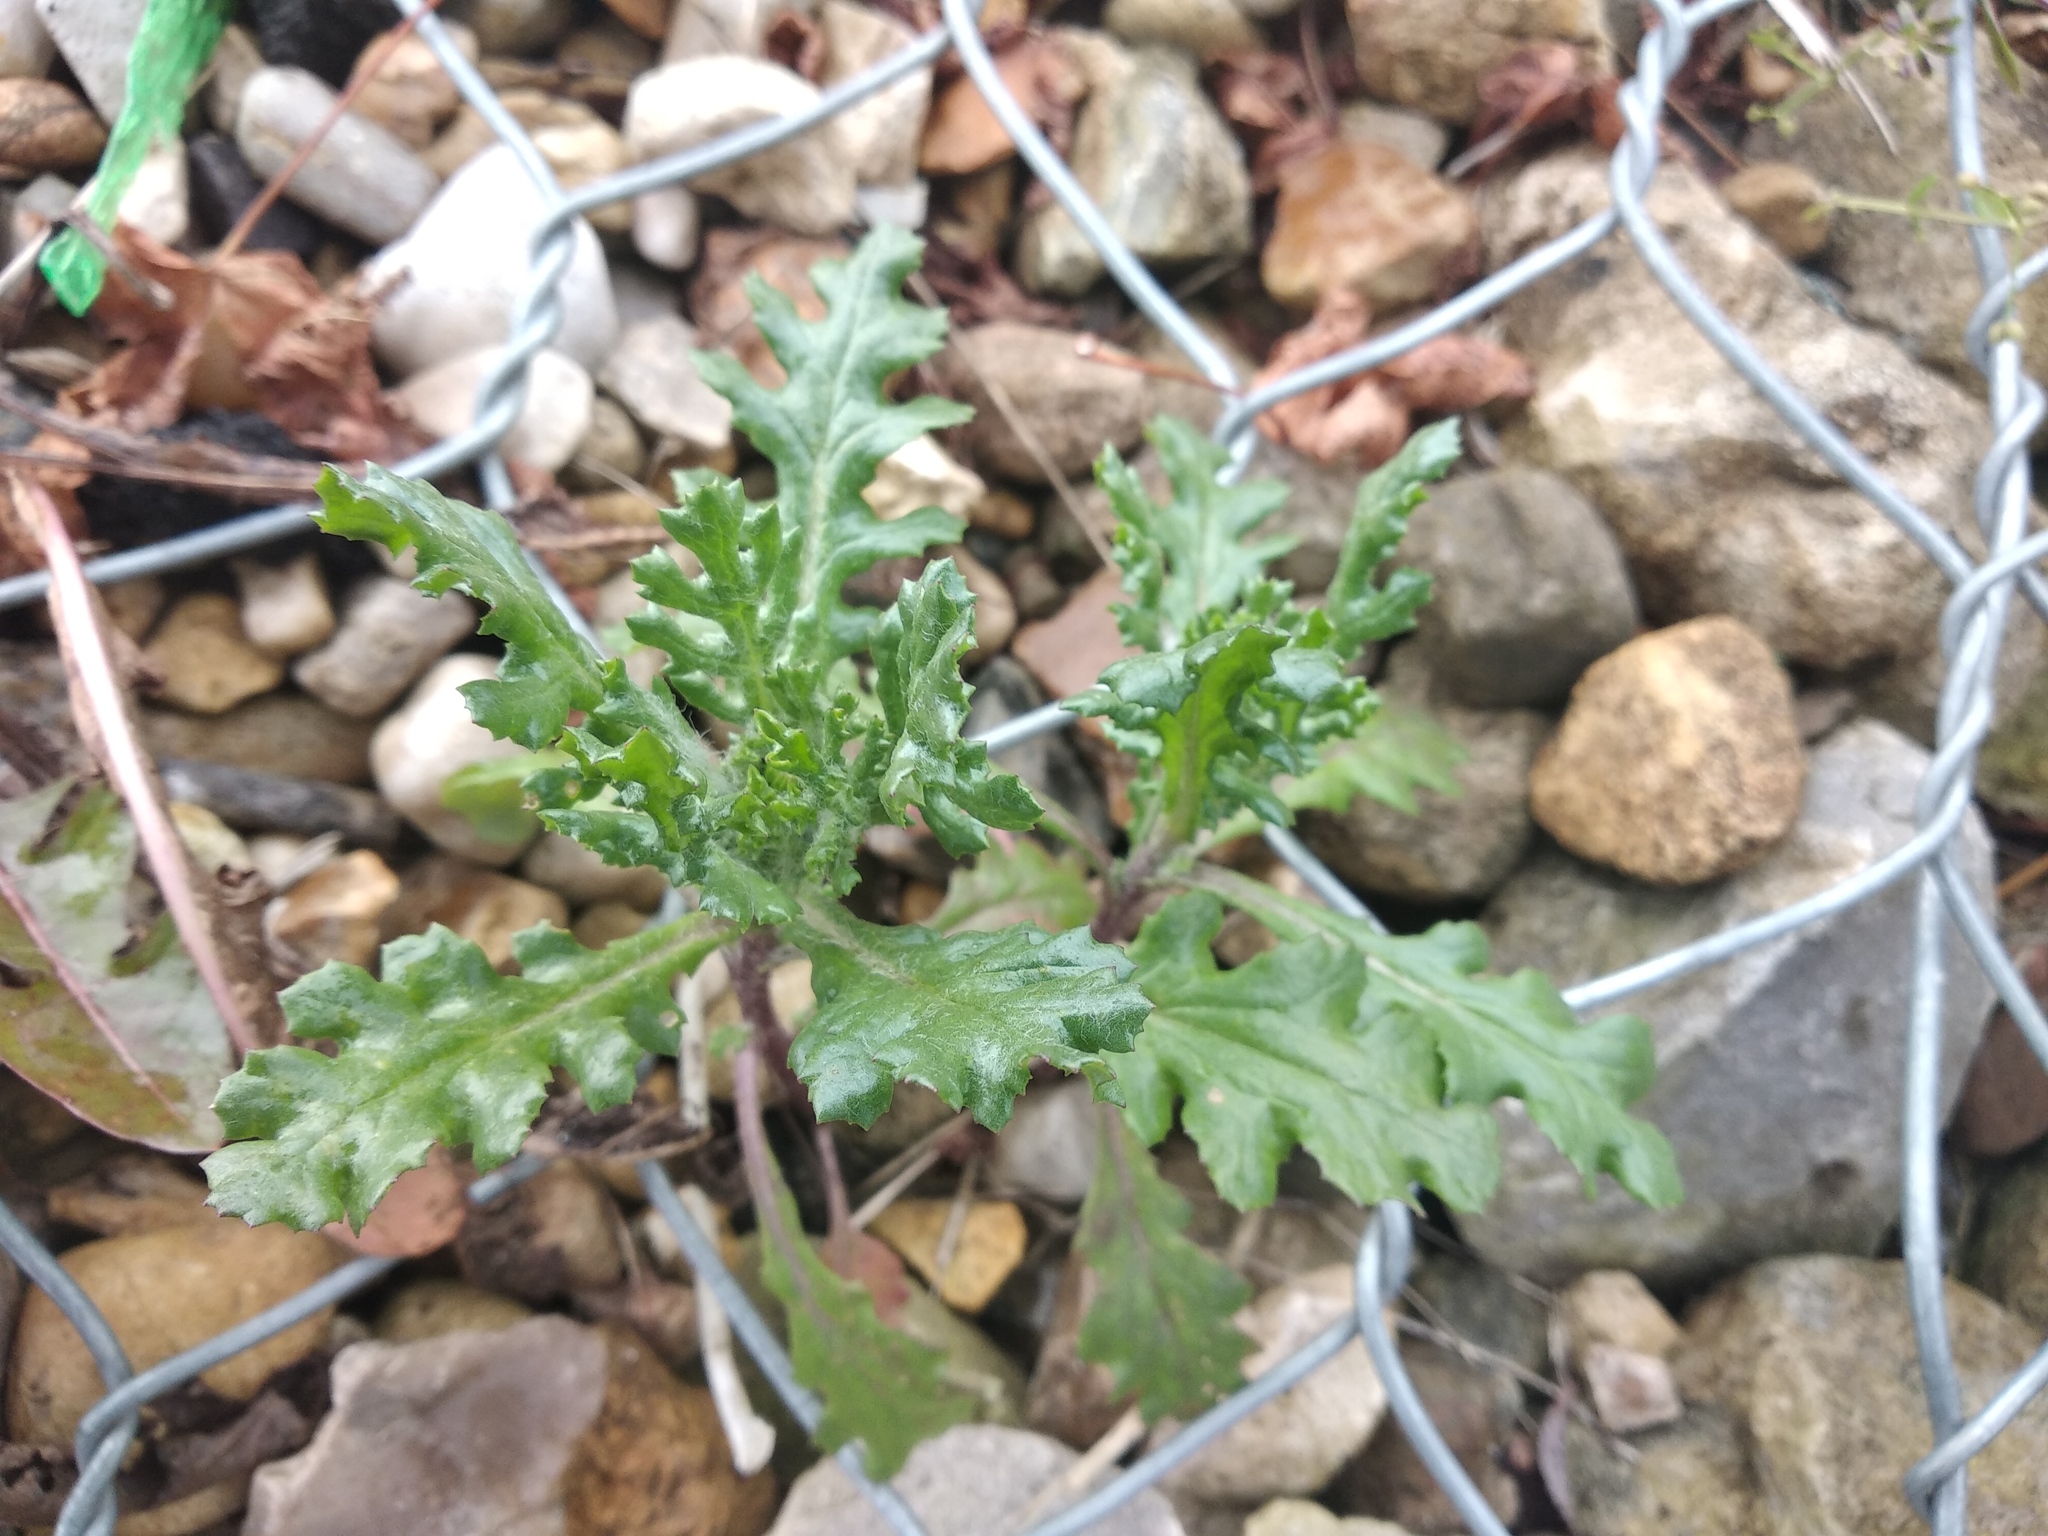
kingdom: Plantae
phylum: Tracheophyta
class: Magnoliopsida
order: Asterales
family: Asteraceae
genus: Senecio
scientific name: Senecio vulgaris
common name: Old-man-in-the-spring
